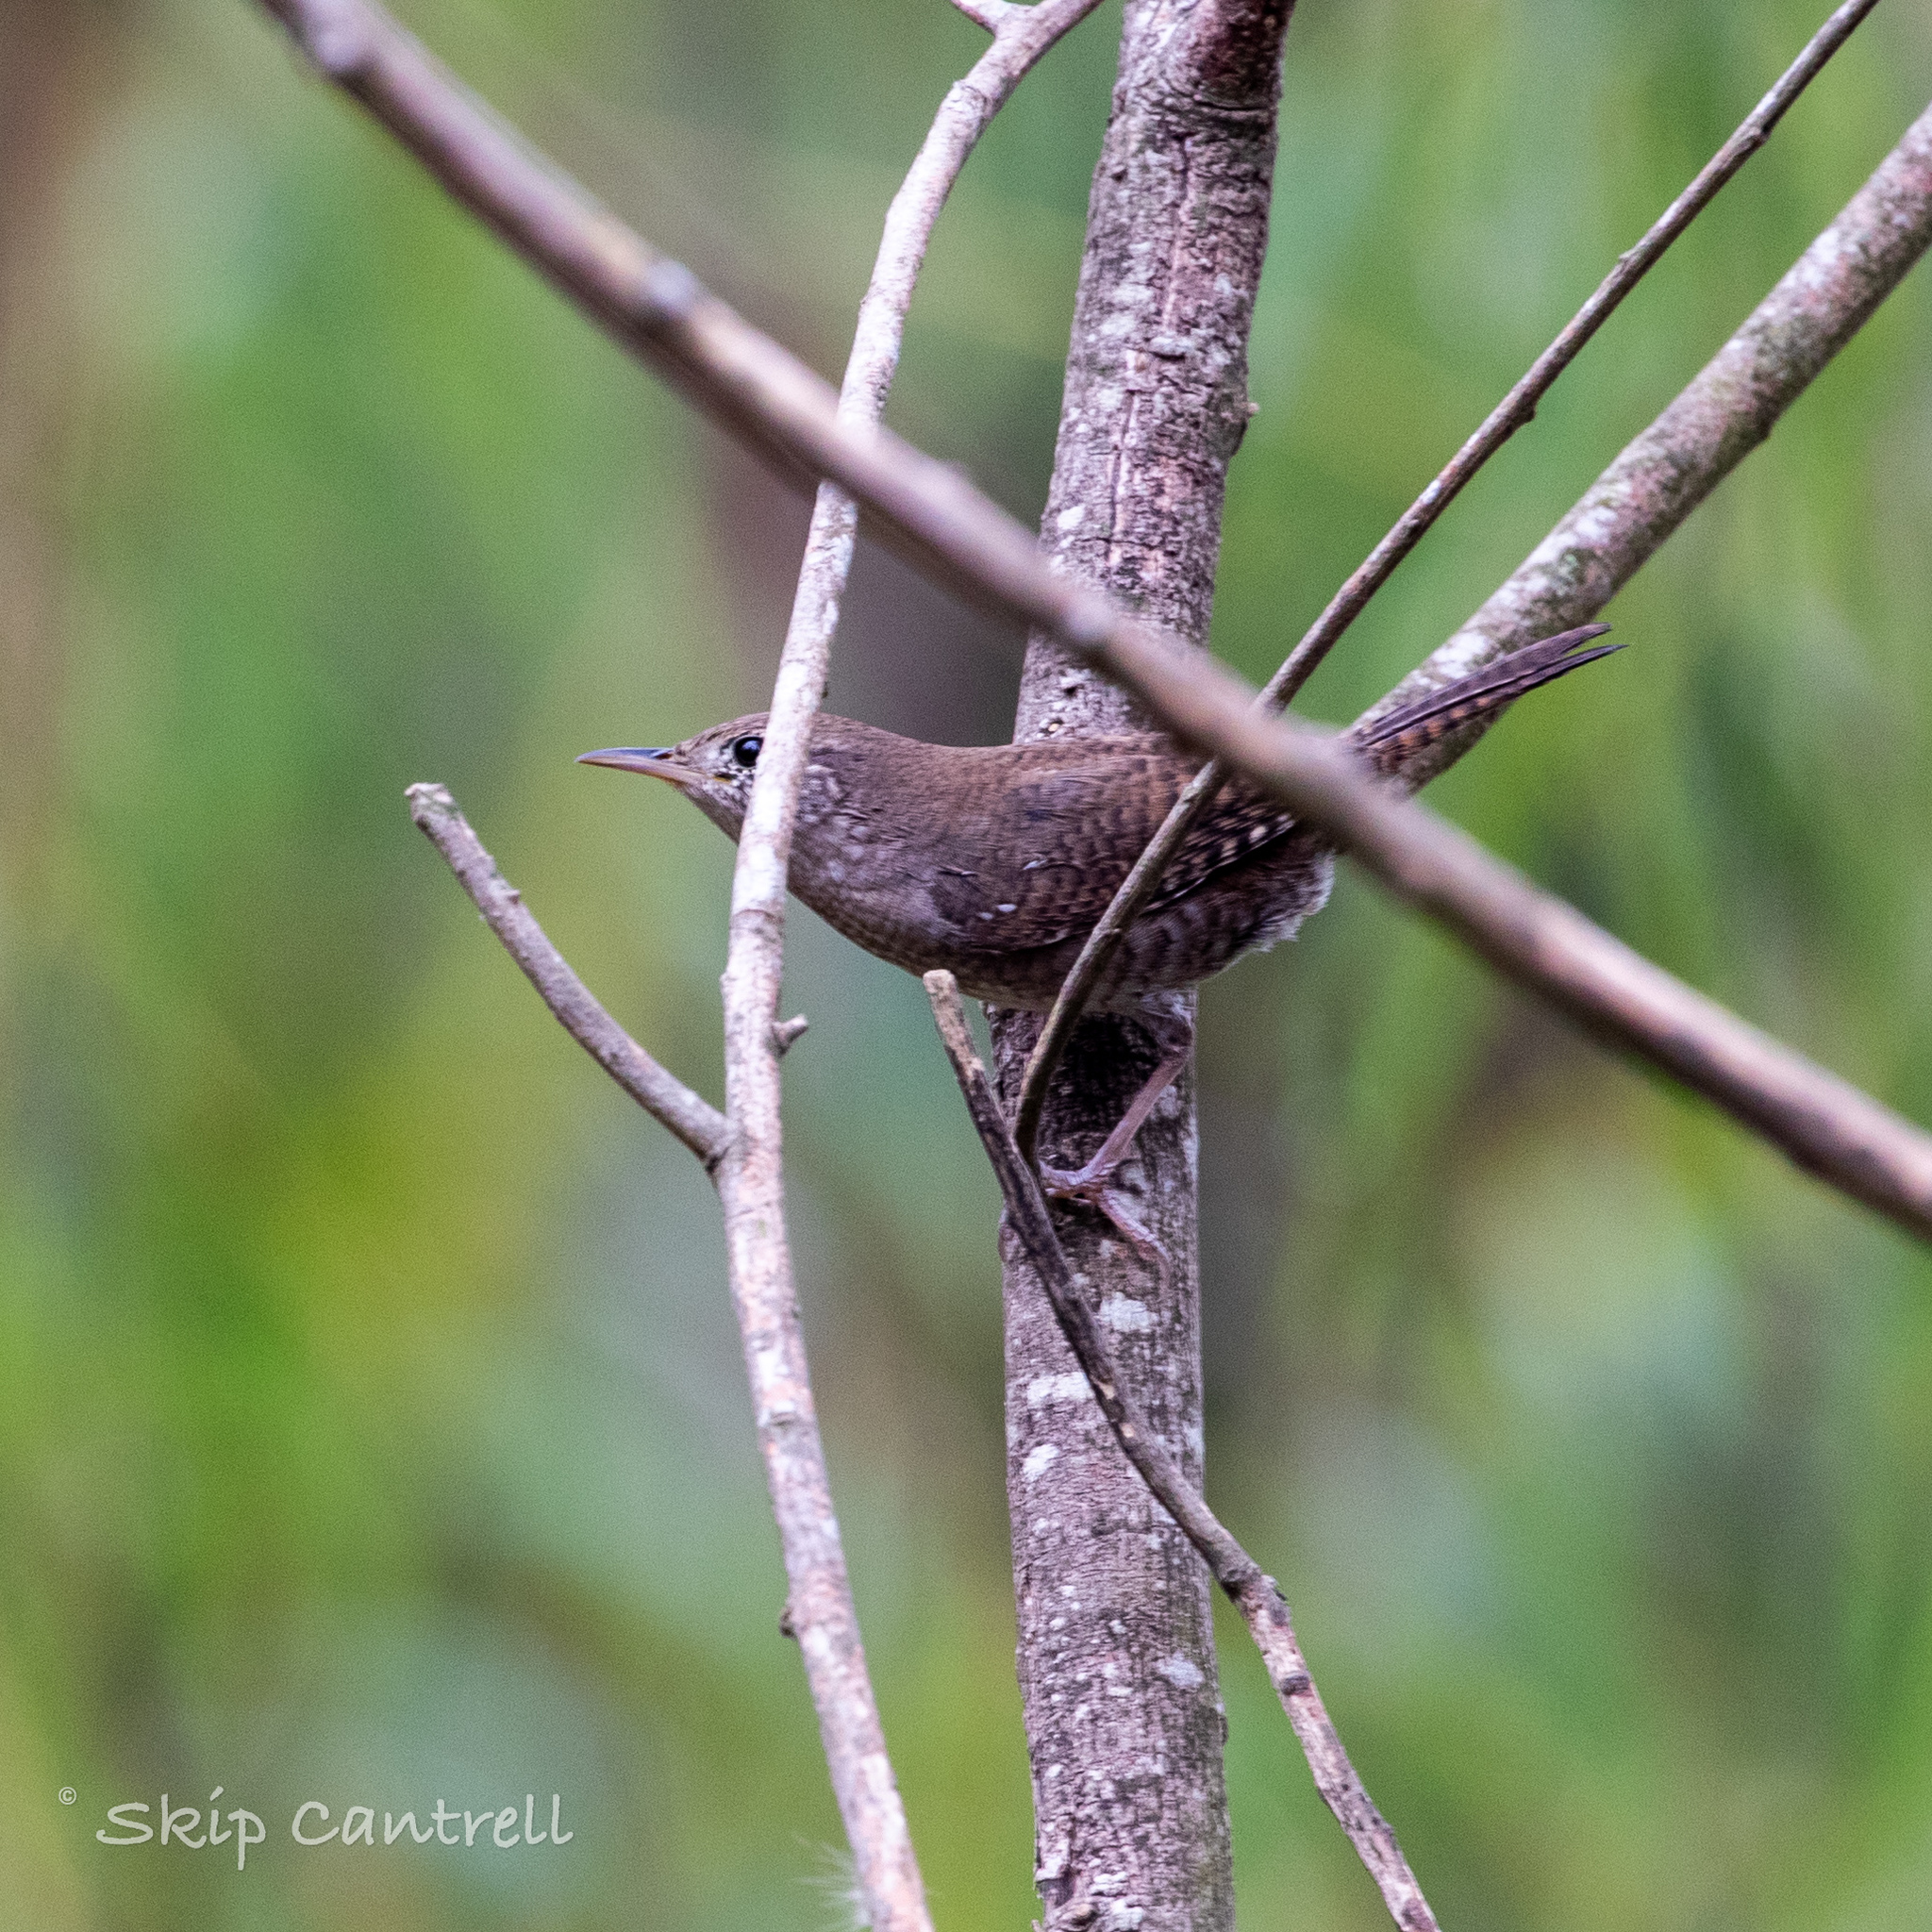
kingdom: Animalia
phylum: Chordata
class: Aves
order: Passeriformes
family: Troglodytidae
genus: Troglodytes
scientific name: Troglodytes aedon
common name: House wren
